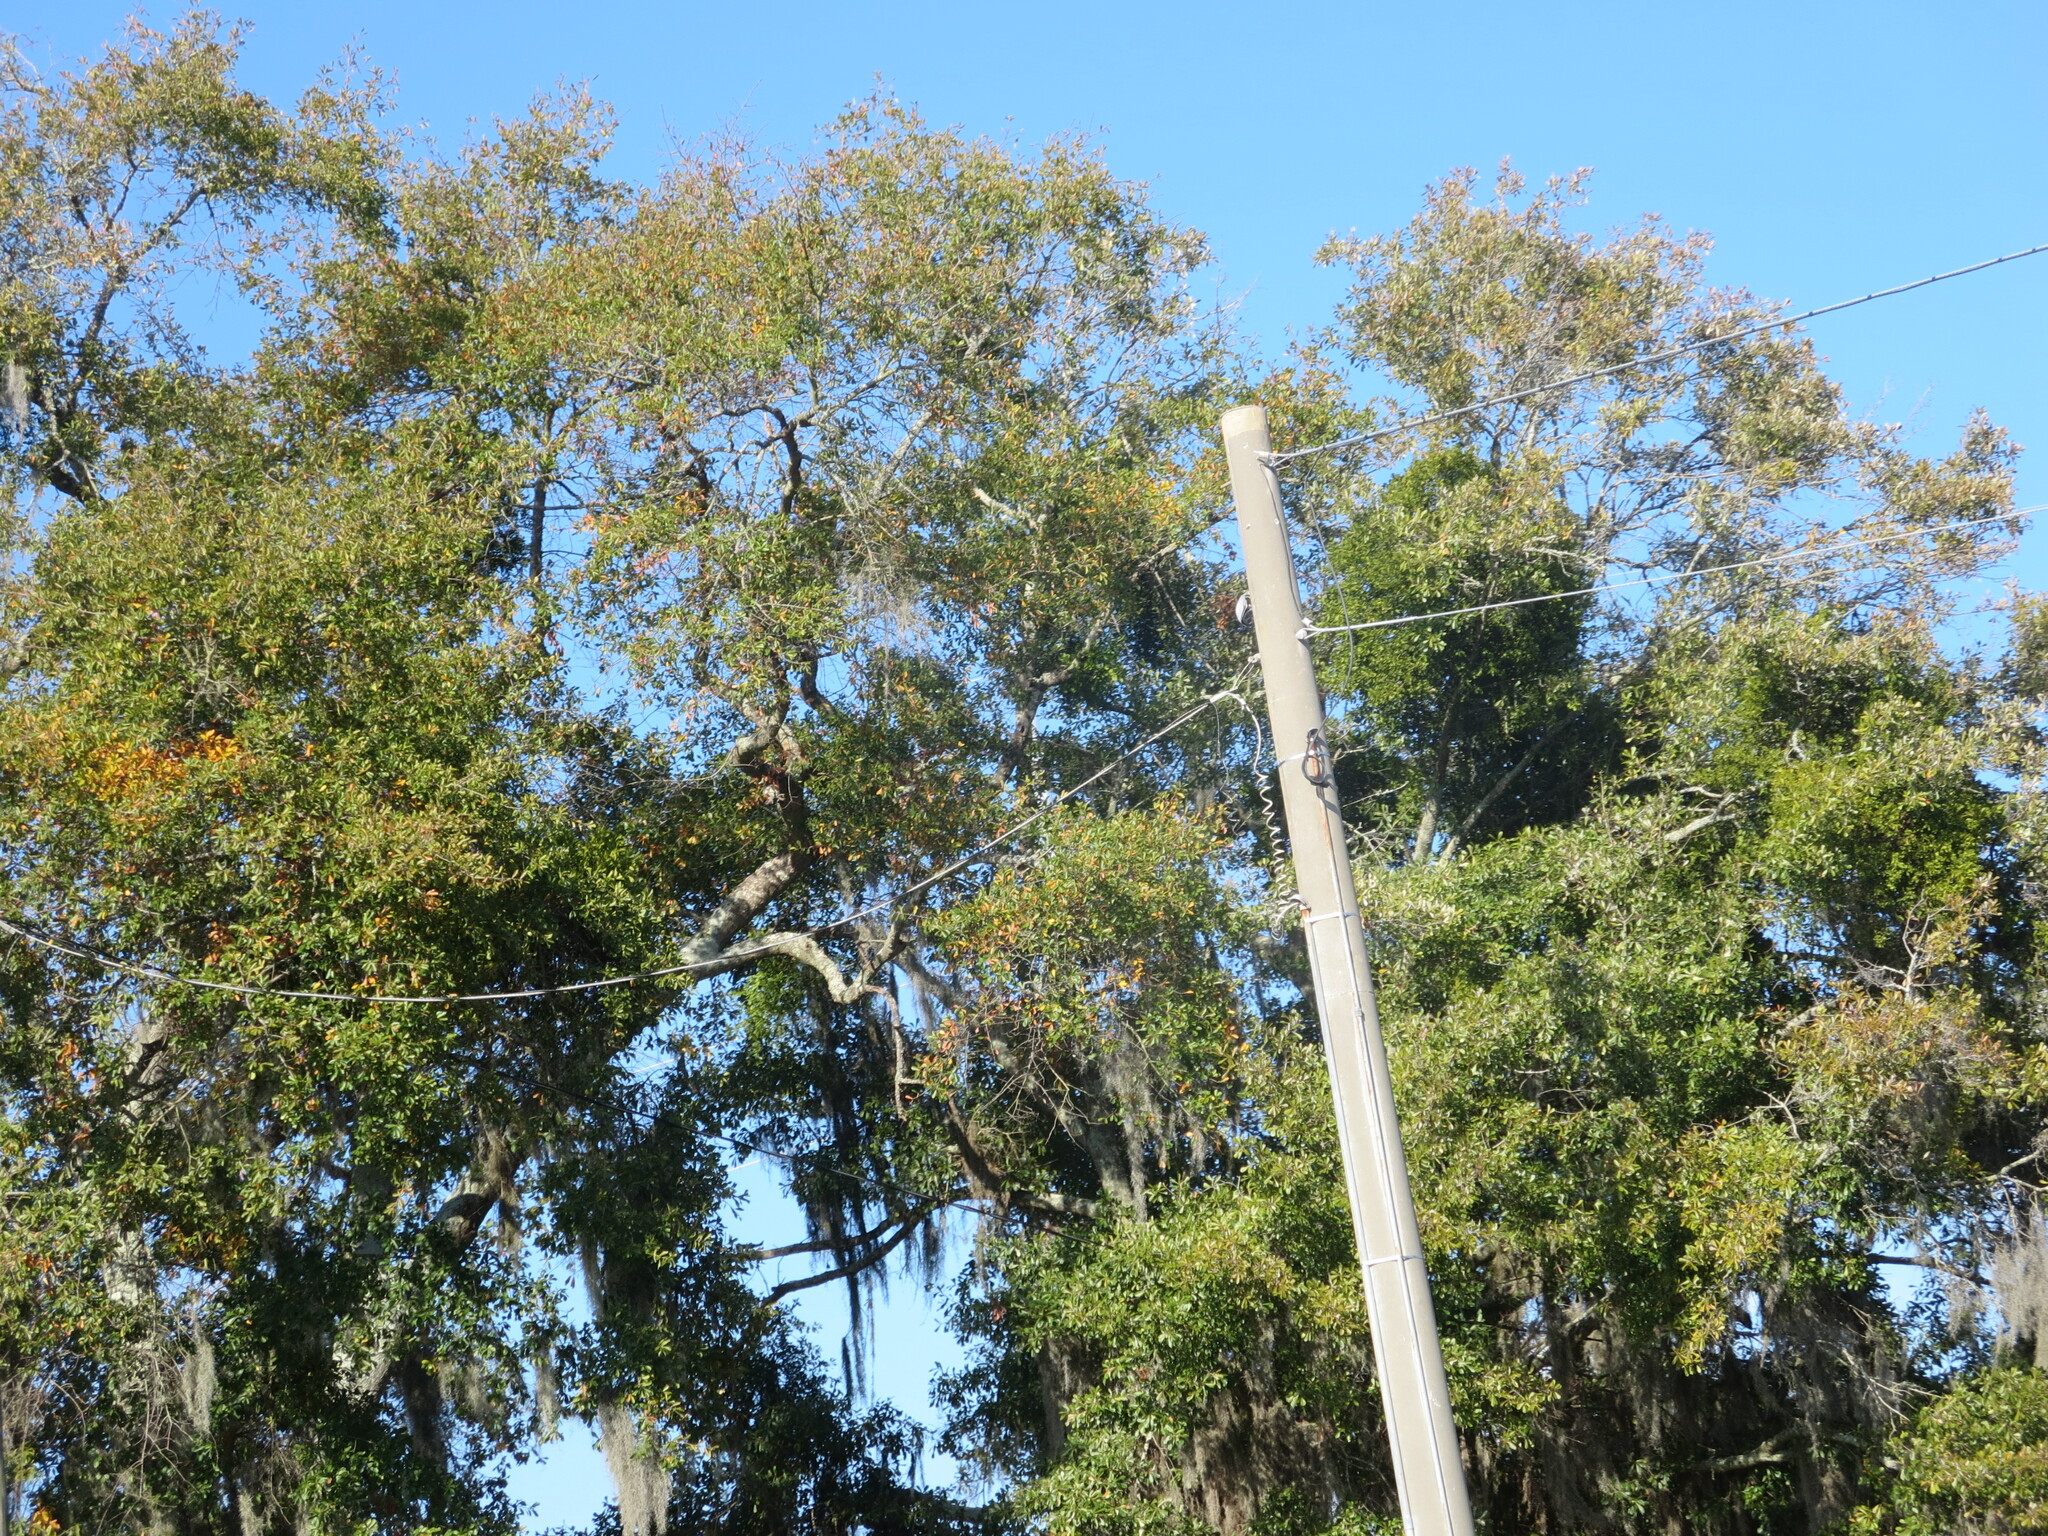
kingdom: Plantae
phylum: Tracheophyta
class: Magnoliopsida
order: Santalales
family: Viscaceae
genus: Phoradendron
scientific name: Phoradendron leucarpum
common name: Pacific mistletoe
